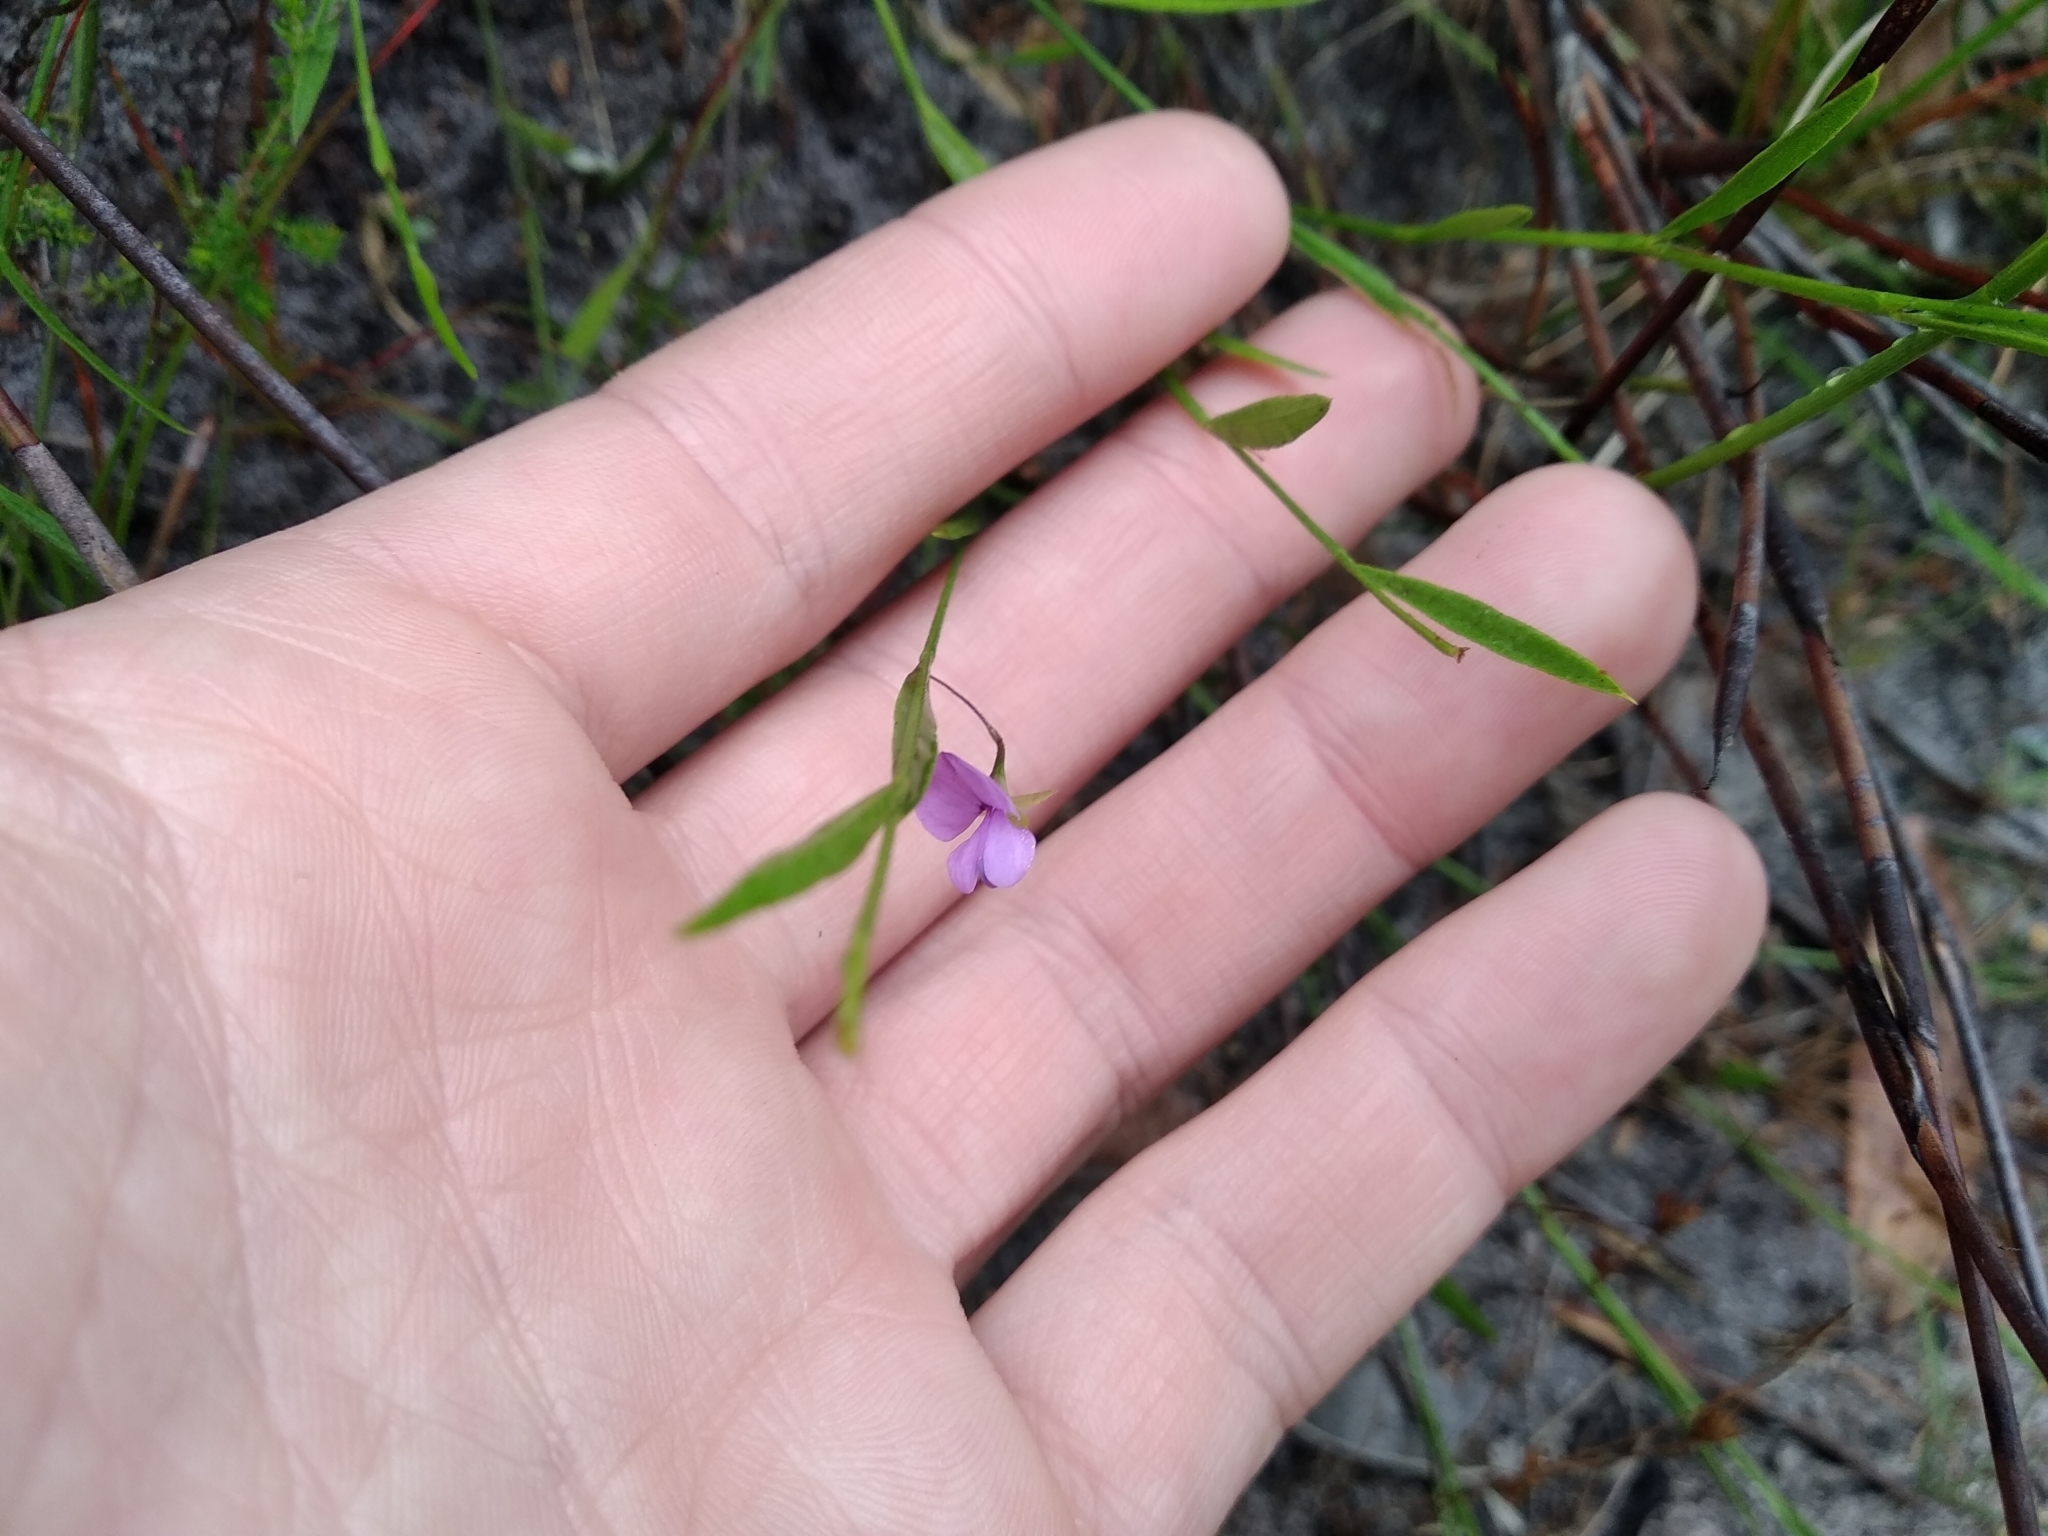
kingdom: Plantae
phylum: Tracheophyta
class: Magnoliopsida
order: Fabales
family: Fabaceae
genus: Psoralea
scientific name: Psoralea laxa
